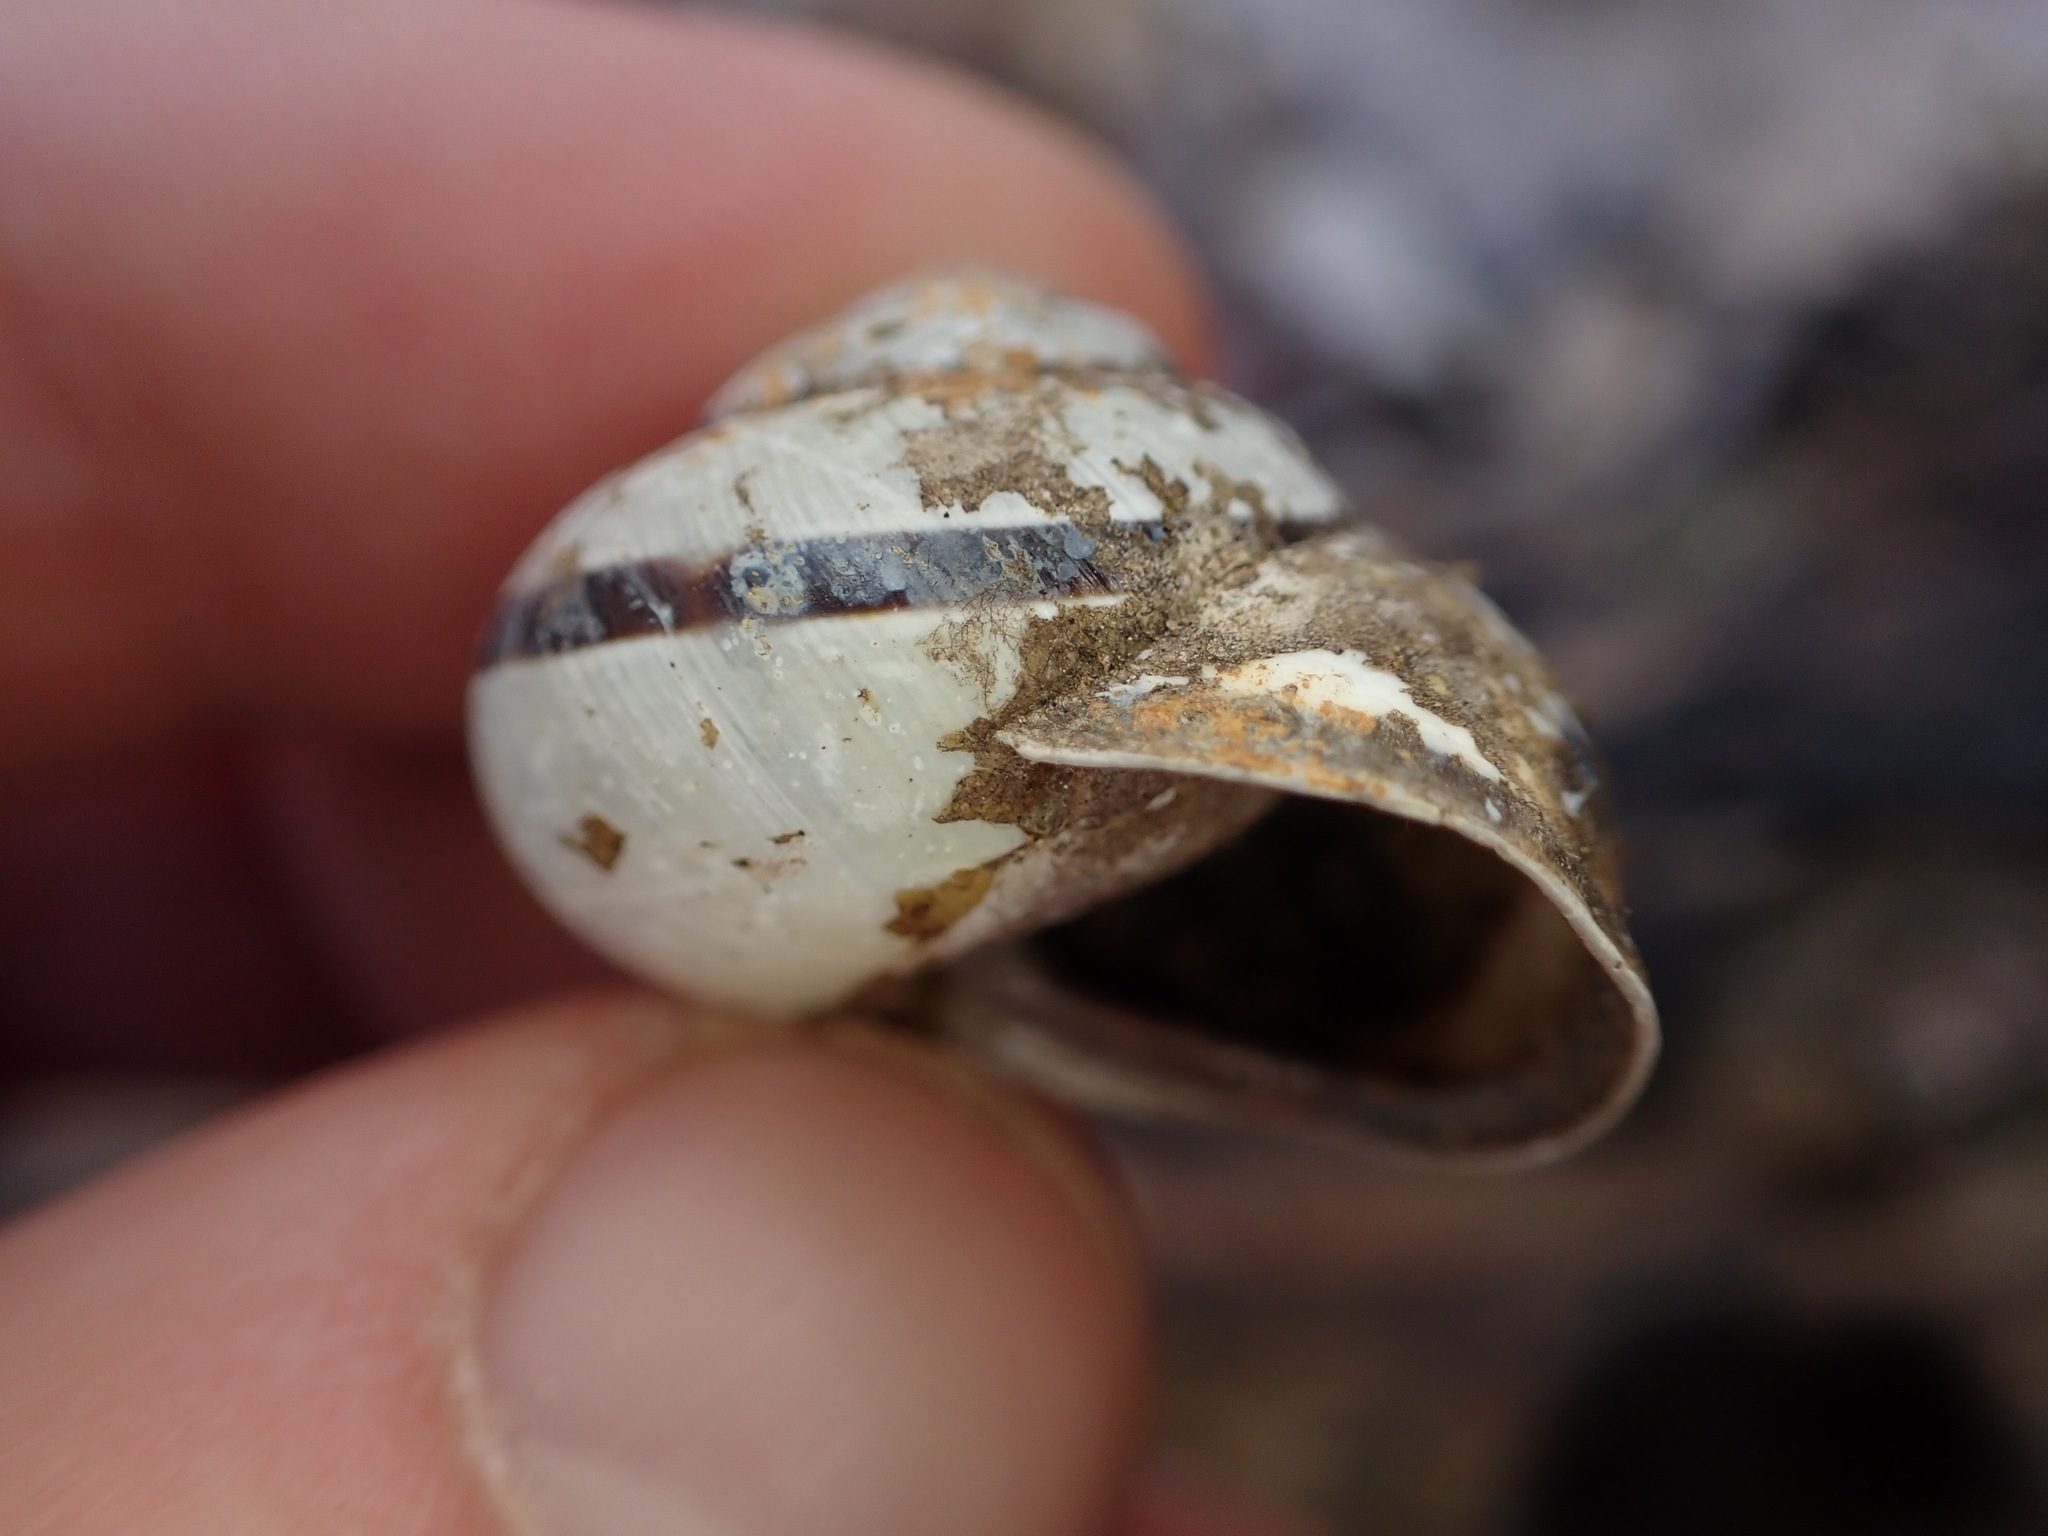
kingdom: Animalia
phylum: Mollusca
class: Gastropoda
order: Stylommatophora
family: Helicidae
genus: Cepaea
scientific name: Cepaea nemoralis
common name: Grovesnail
